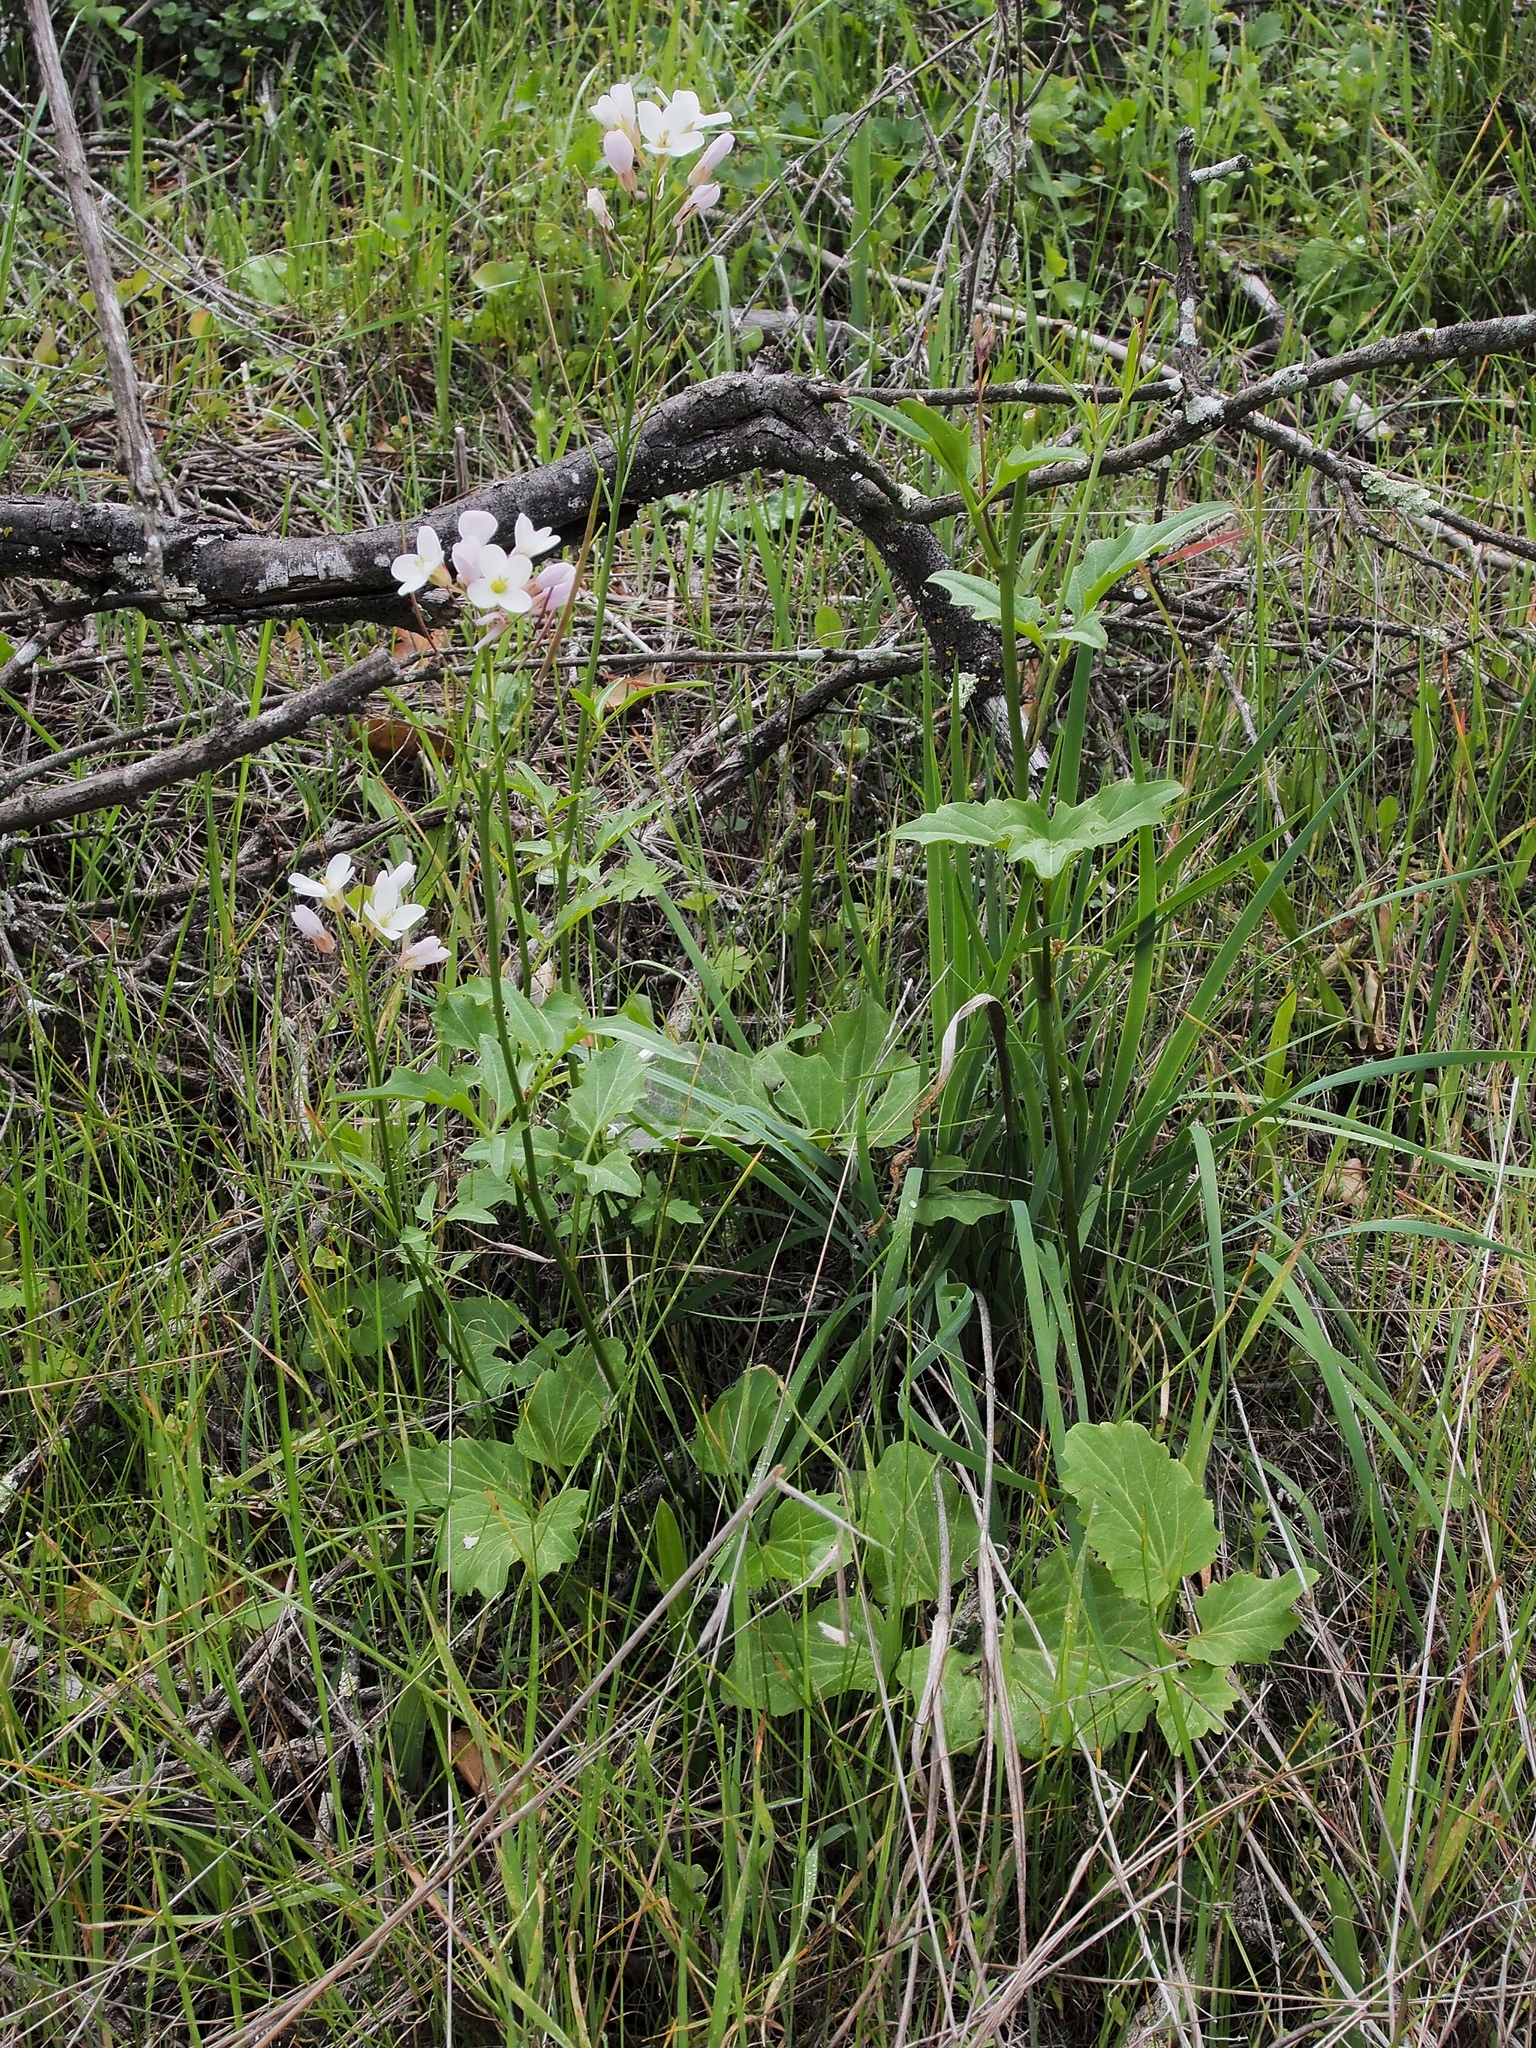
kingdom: Plantae
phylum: Tracheophyta
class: Magnoliopsida
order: Brassicales
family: Brassicaceae
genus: Cardamine
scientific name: Cardamine californica
